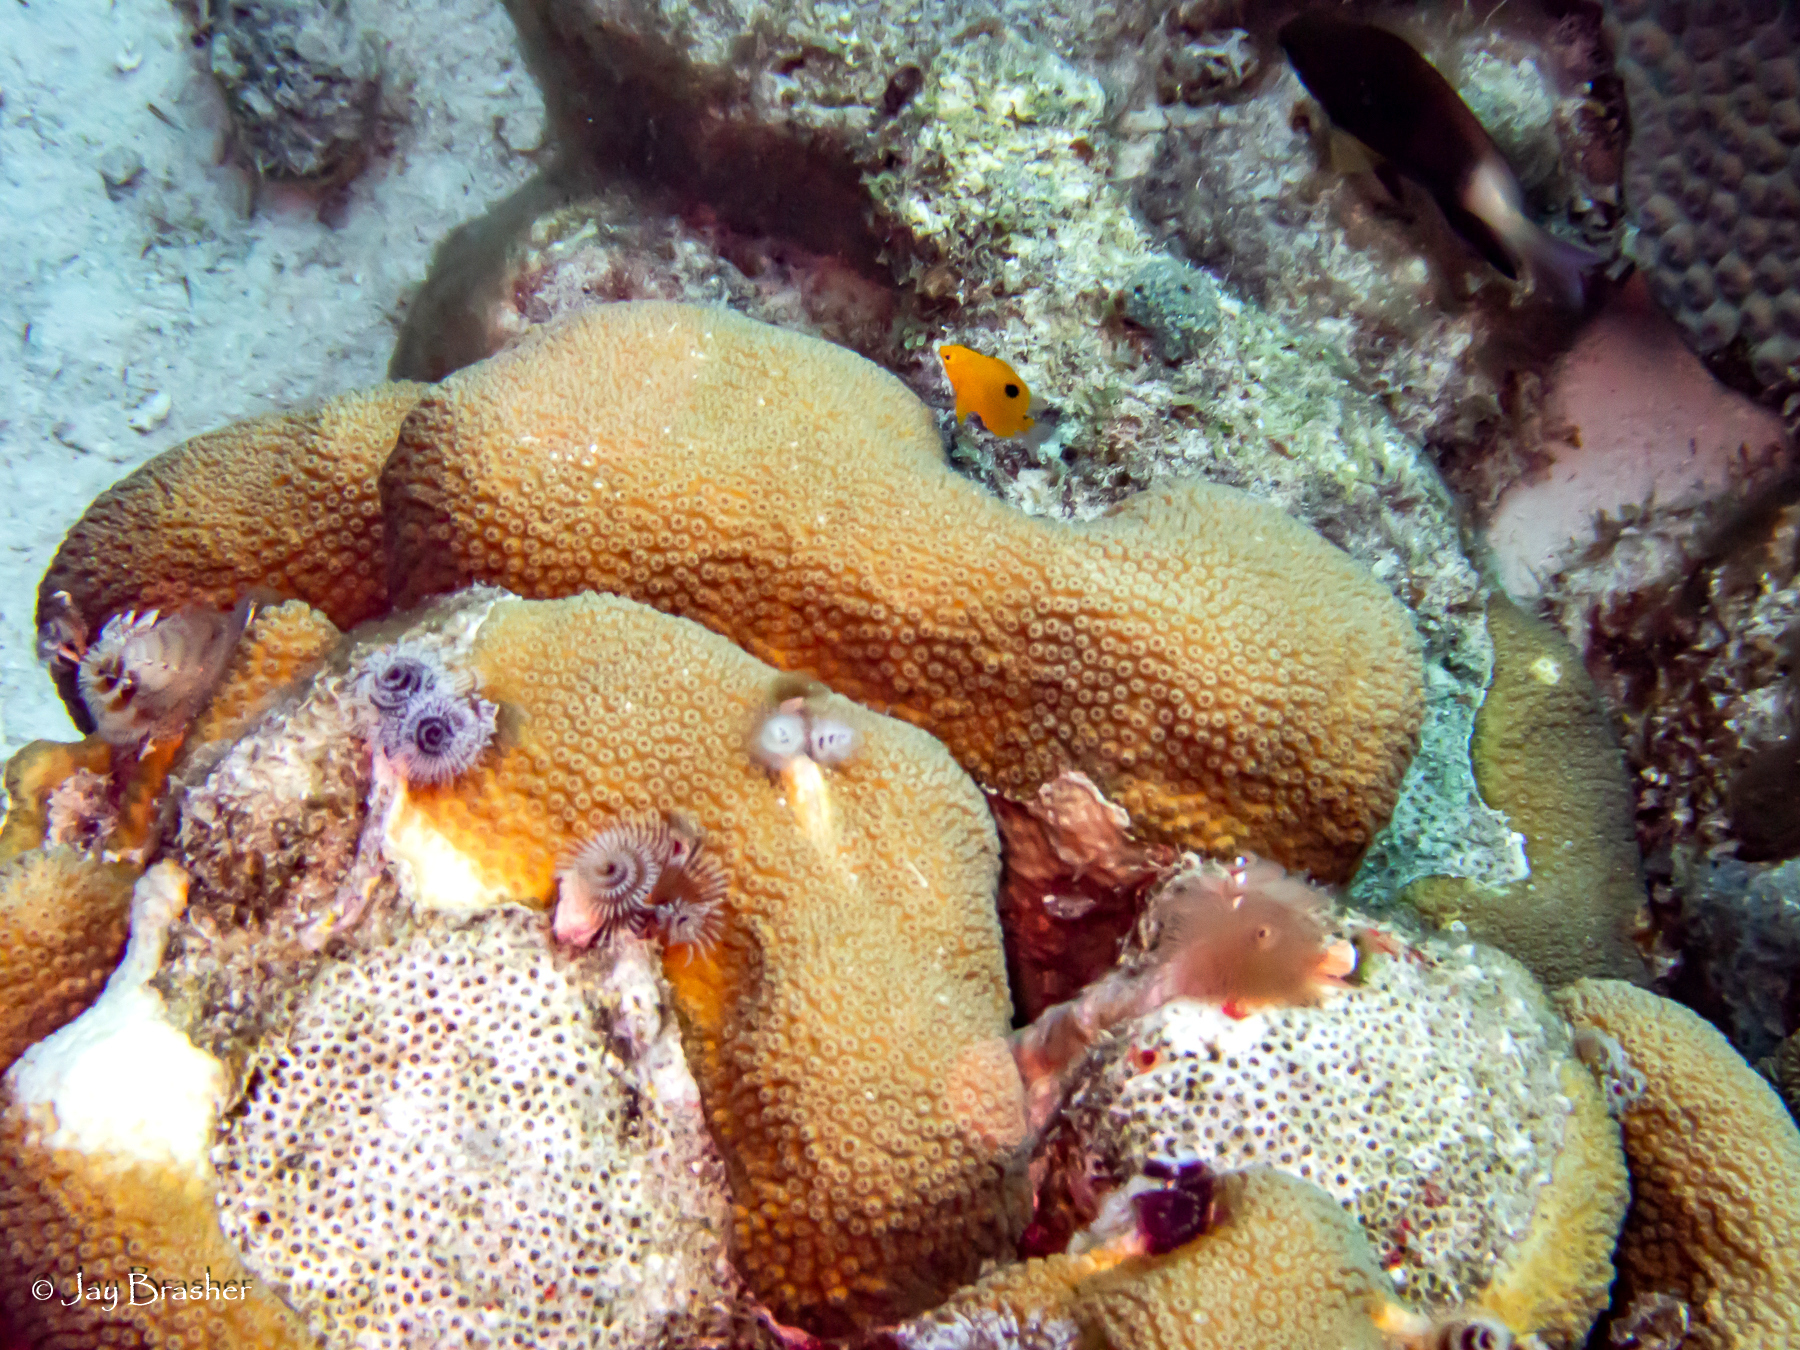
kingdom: Animalia
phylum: Chordata
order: Perciformes
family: Pomacentridae
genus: Stegastes
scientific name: Stegastes planifrons
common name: Threespot damselfish
